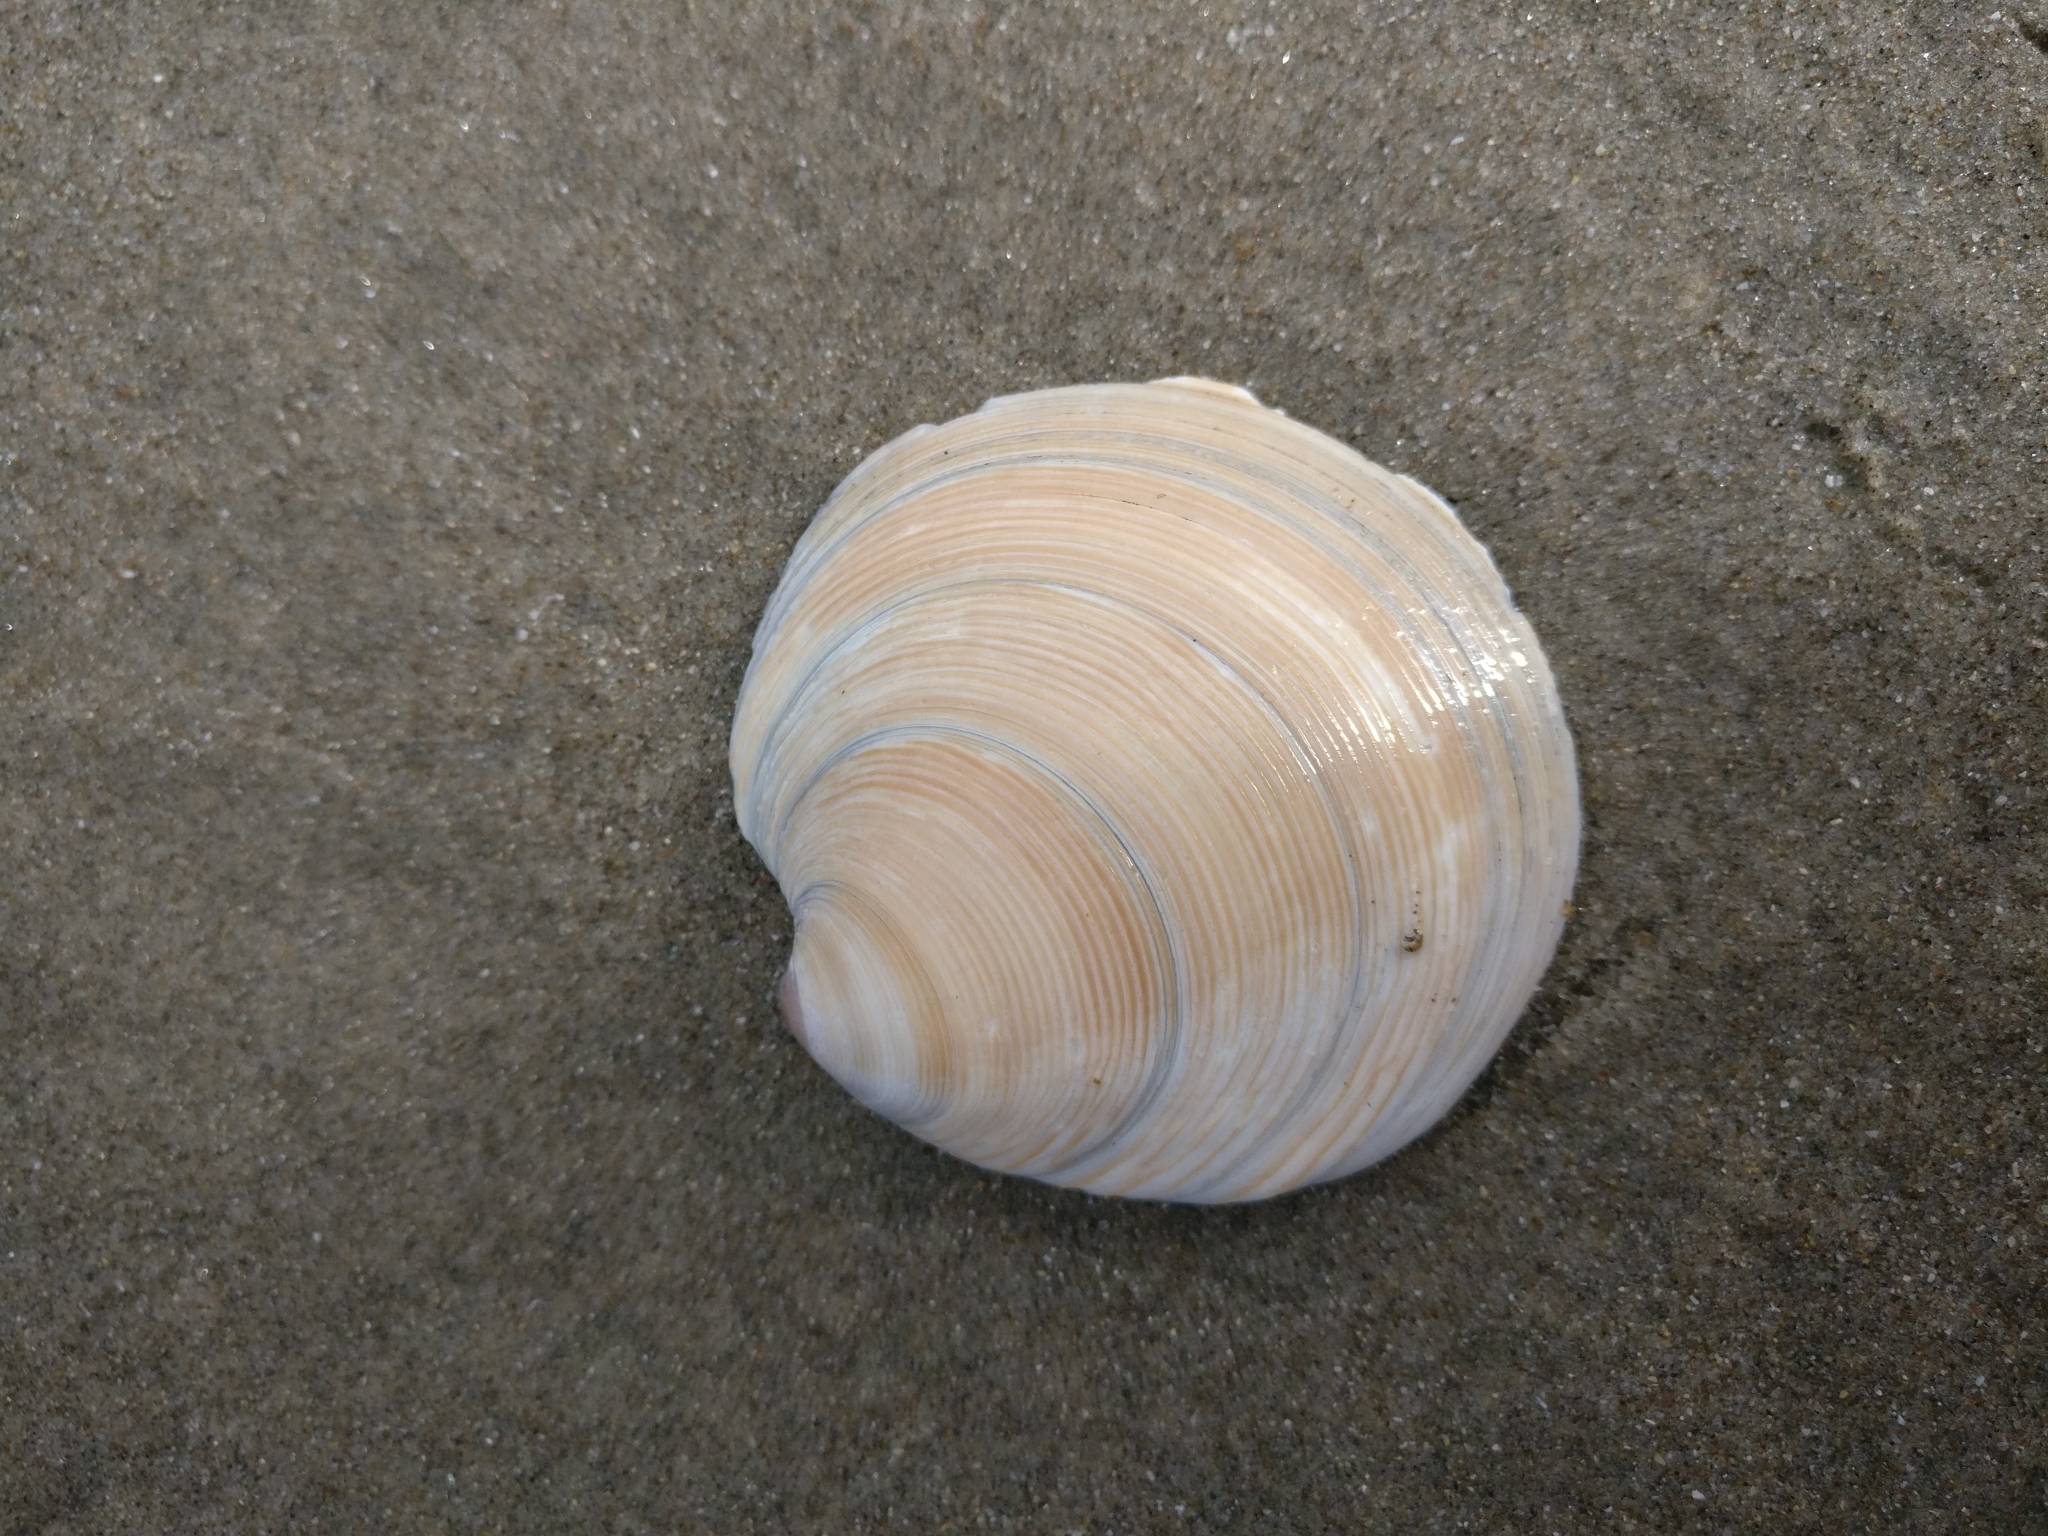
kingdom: Animalia
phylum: Mollusca
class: Bivalvia
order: Venerida
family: Veneridae
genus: Dosinia
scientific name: Dosinia anus
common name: Old-woman dosinia
